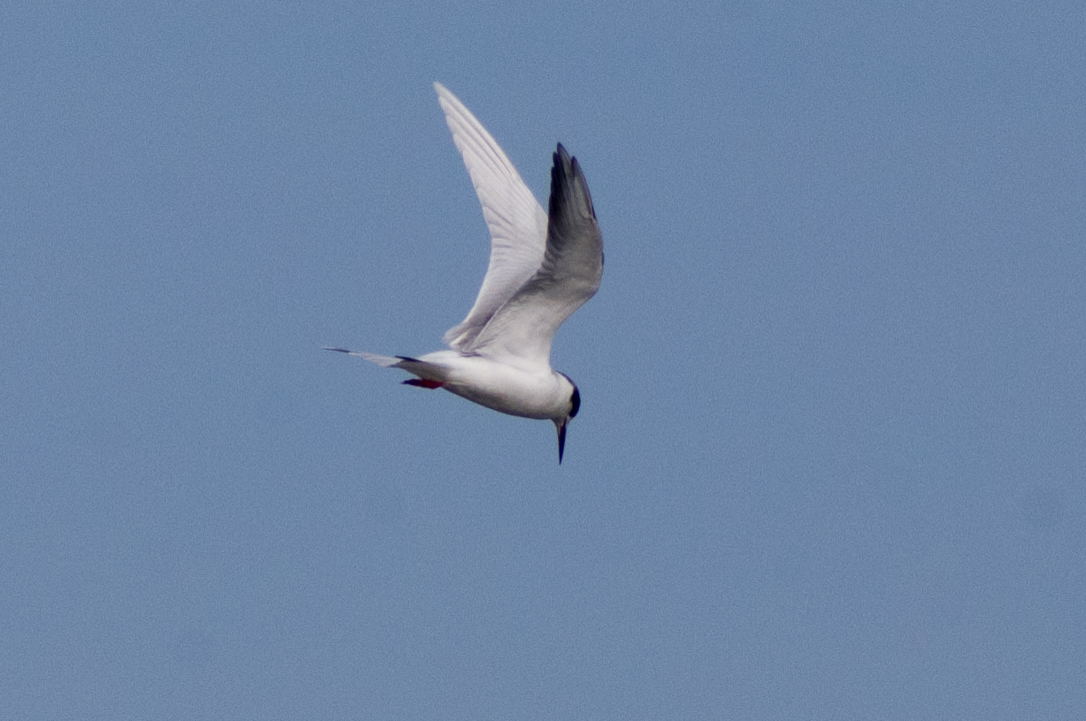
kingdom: Animalia
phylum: Chordata
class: Aves
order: Charadriiformes
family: Laridae
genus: Sterna
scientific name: Sterna forsteri
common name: Forster's tern
